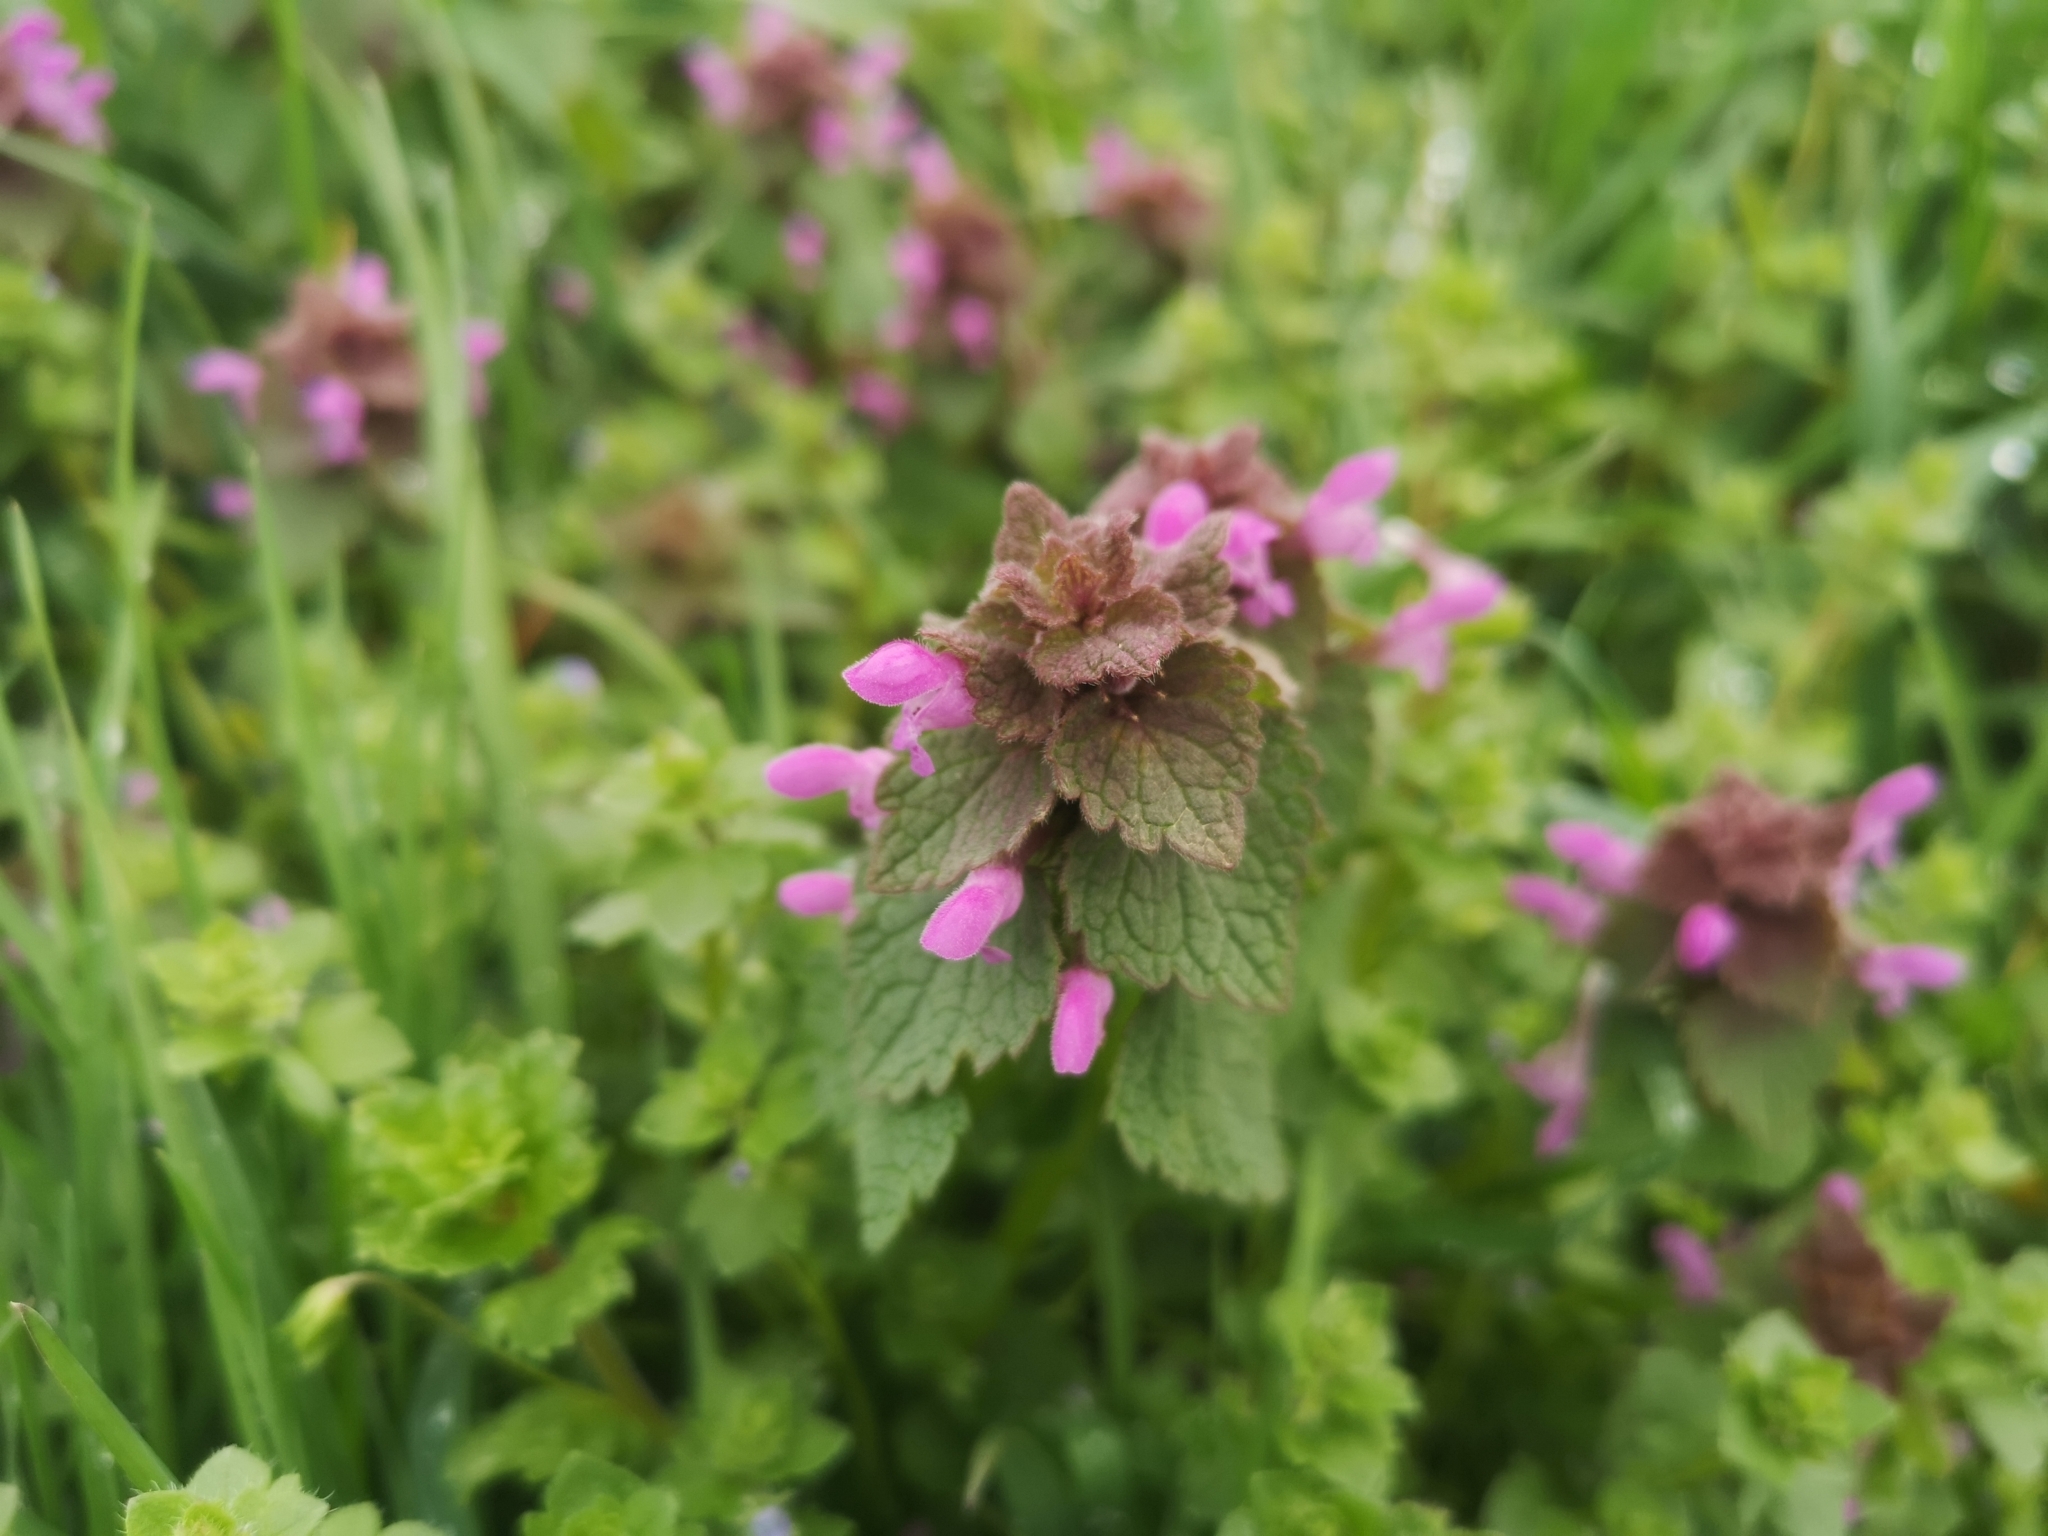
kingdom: Plantae
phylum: Tracheophyta
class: Magnoliopsida
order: Lamiales
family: Lamiaceae
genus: Lamium
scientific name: Lamium purpureum
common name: Red dead-nettle
